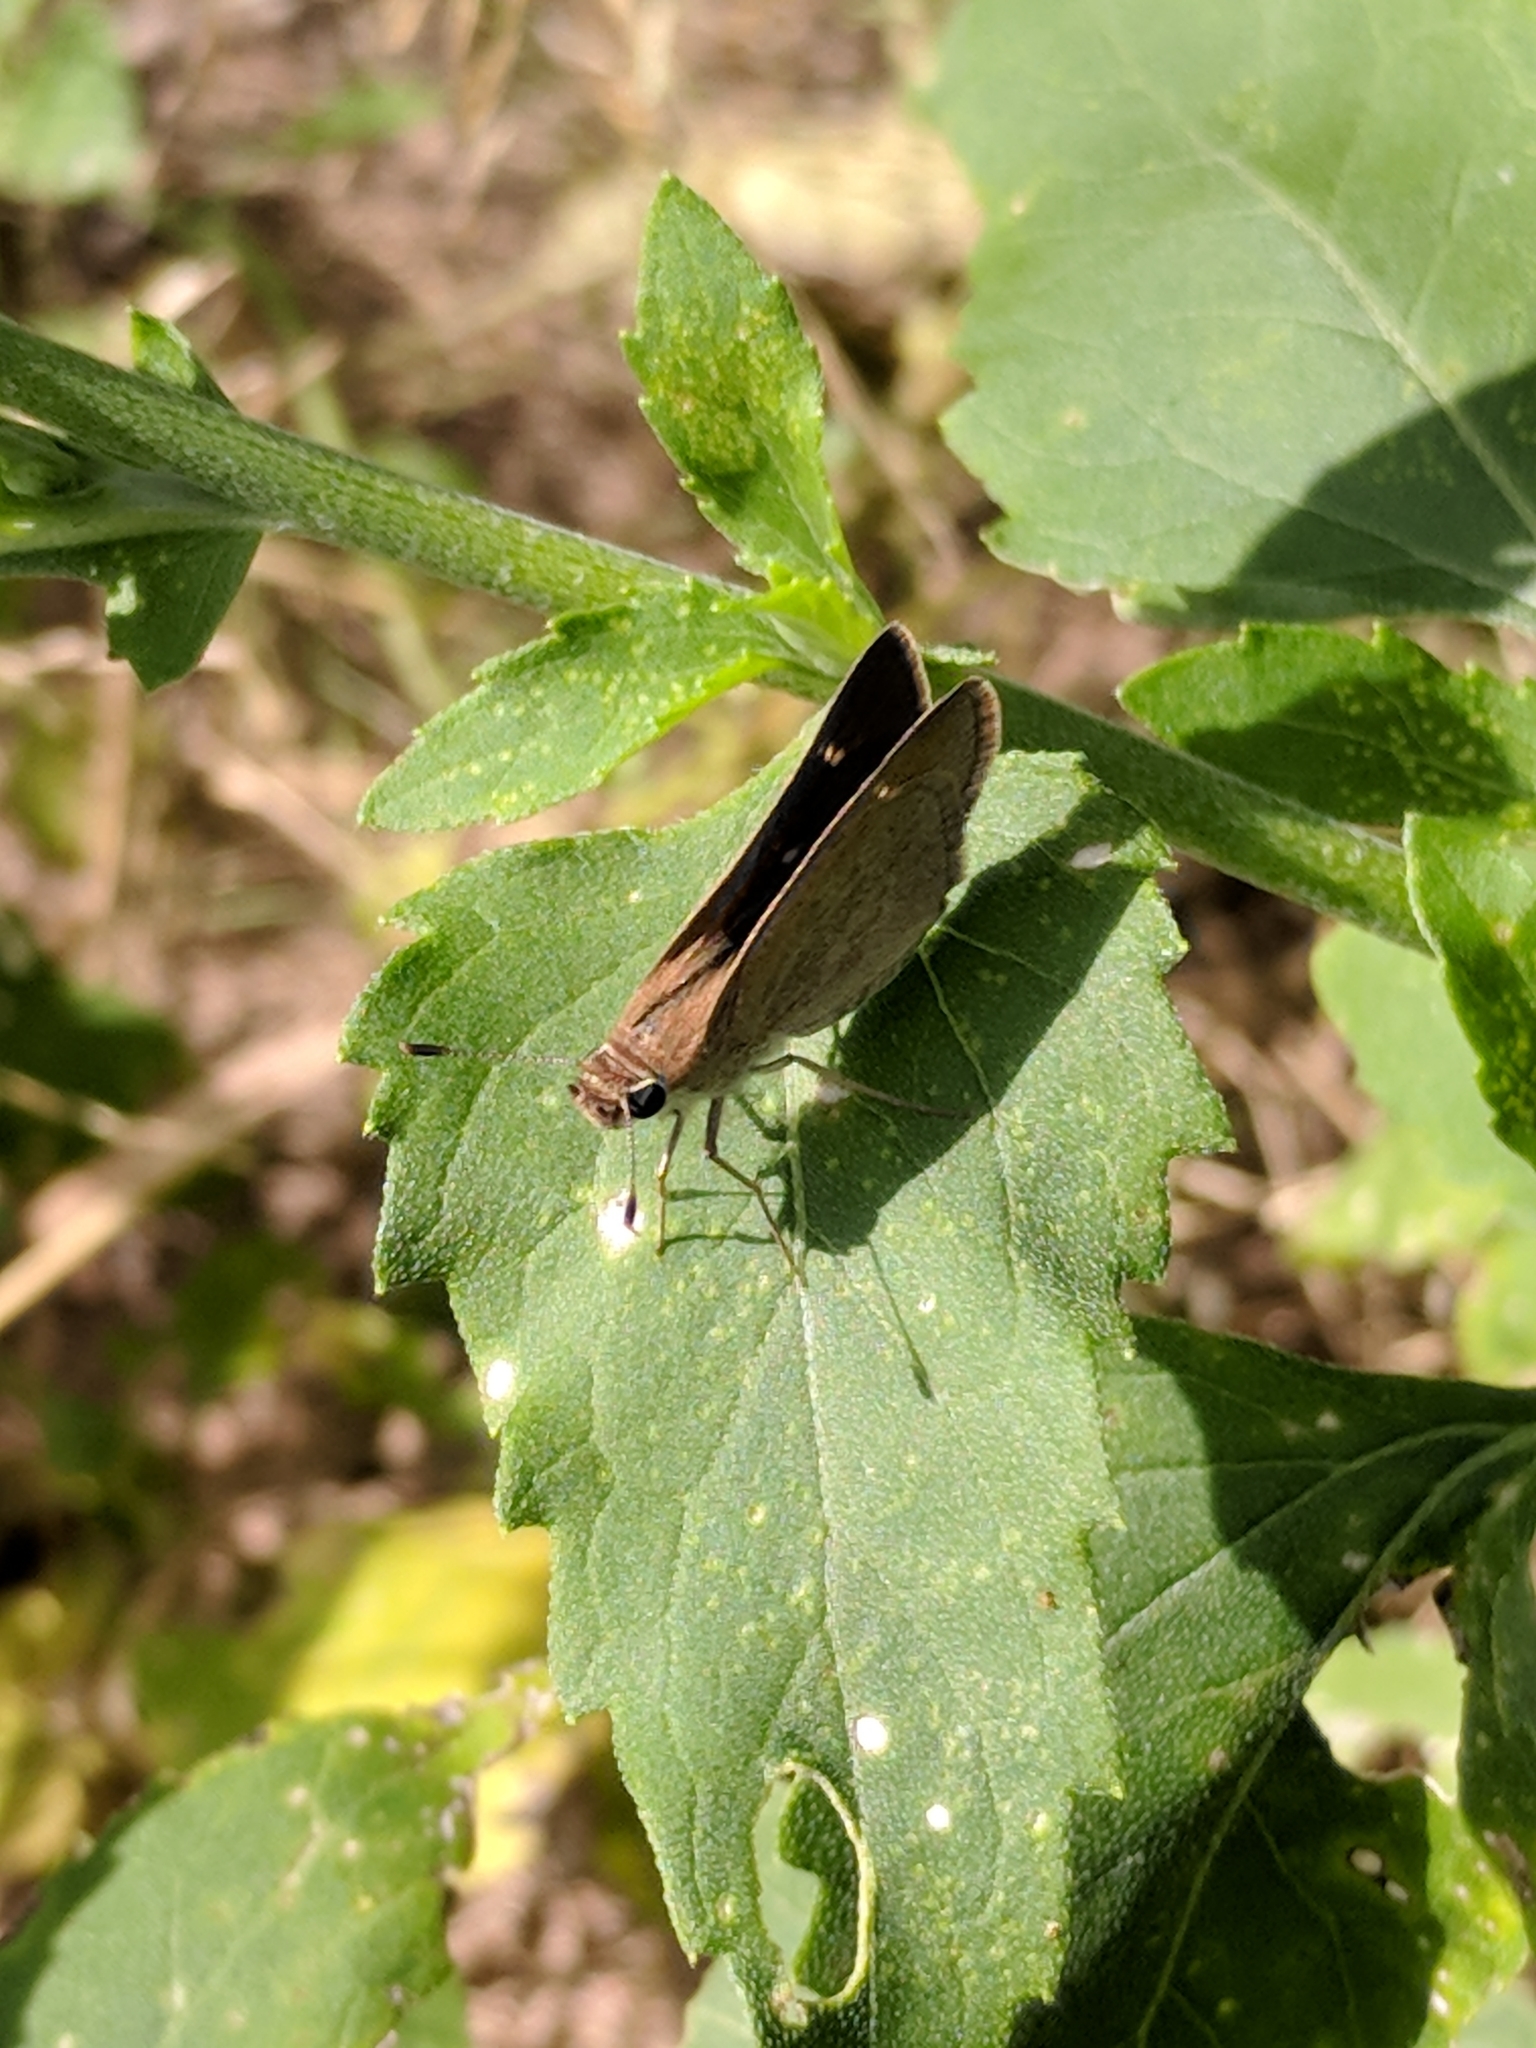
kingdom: Animalia
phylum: Arthropoda
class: Insecta
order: Lepidoptera
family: Hesperiidae
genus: Lerodea
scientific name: Lerodea eufala
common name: Eufala skipper
